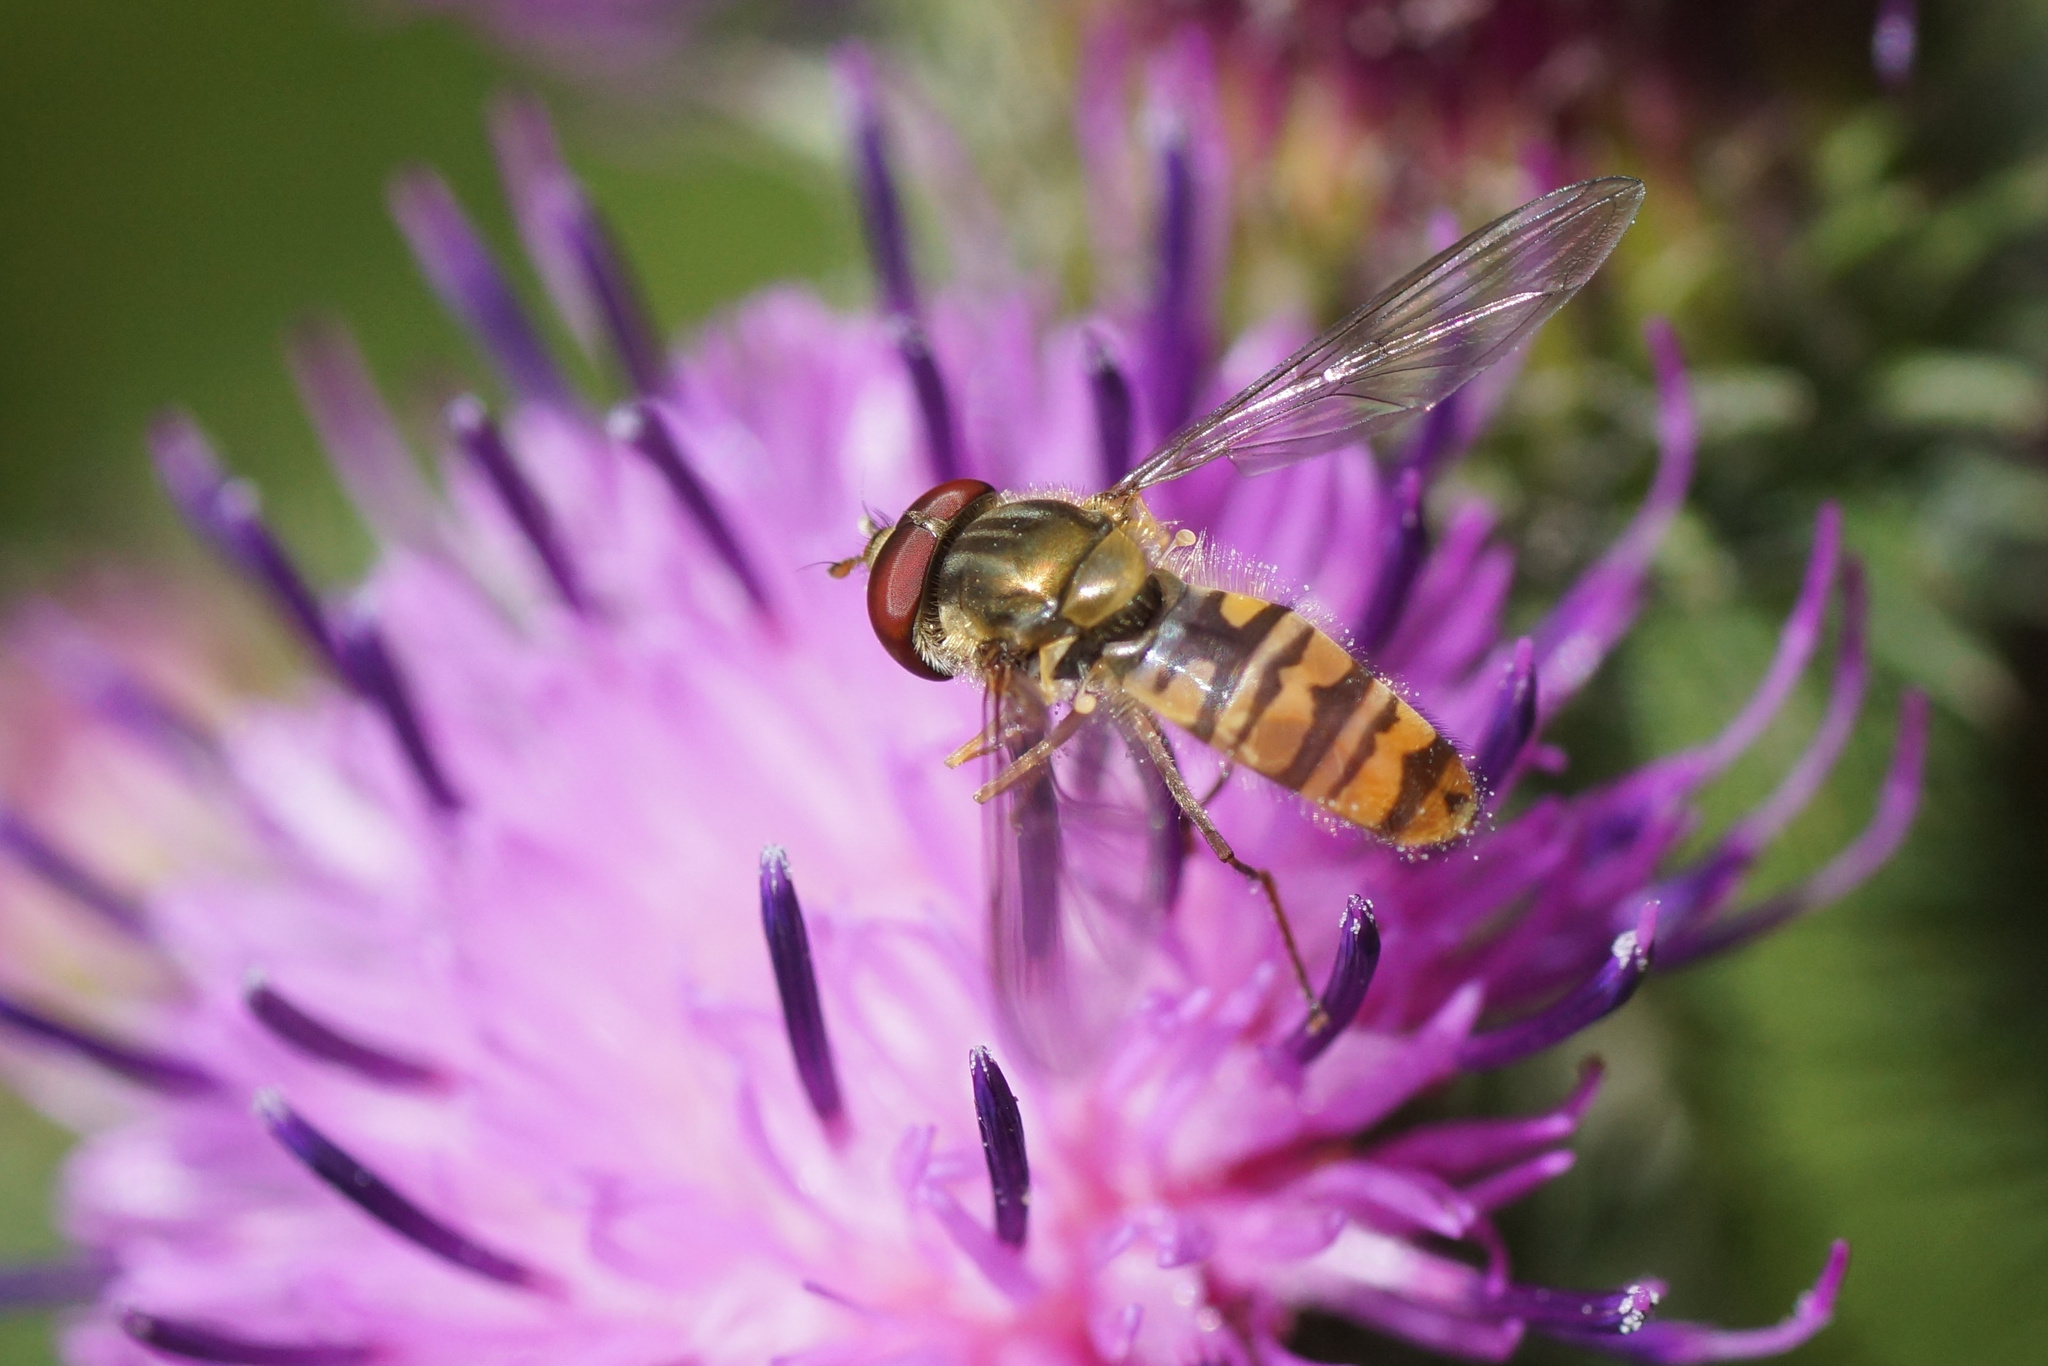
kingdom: Animalia
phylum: Arthropoda
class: Insecta
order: Diptera
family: Syrphidae
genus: Episyrphus
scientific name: Episyrphus balteatus
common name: Marmalade hoverfly
